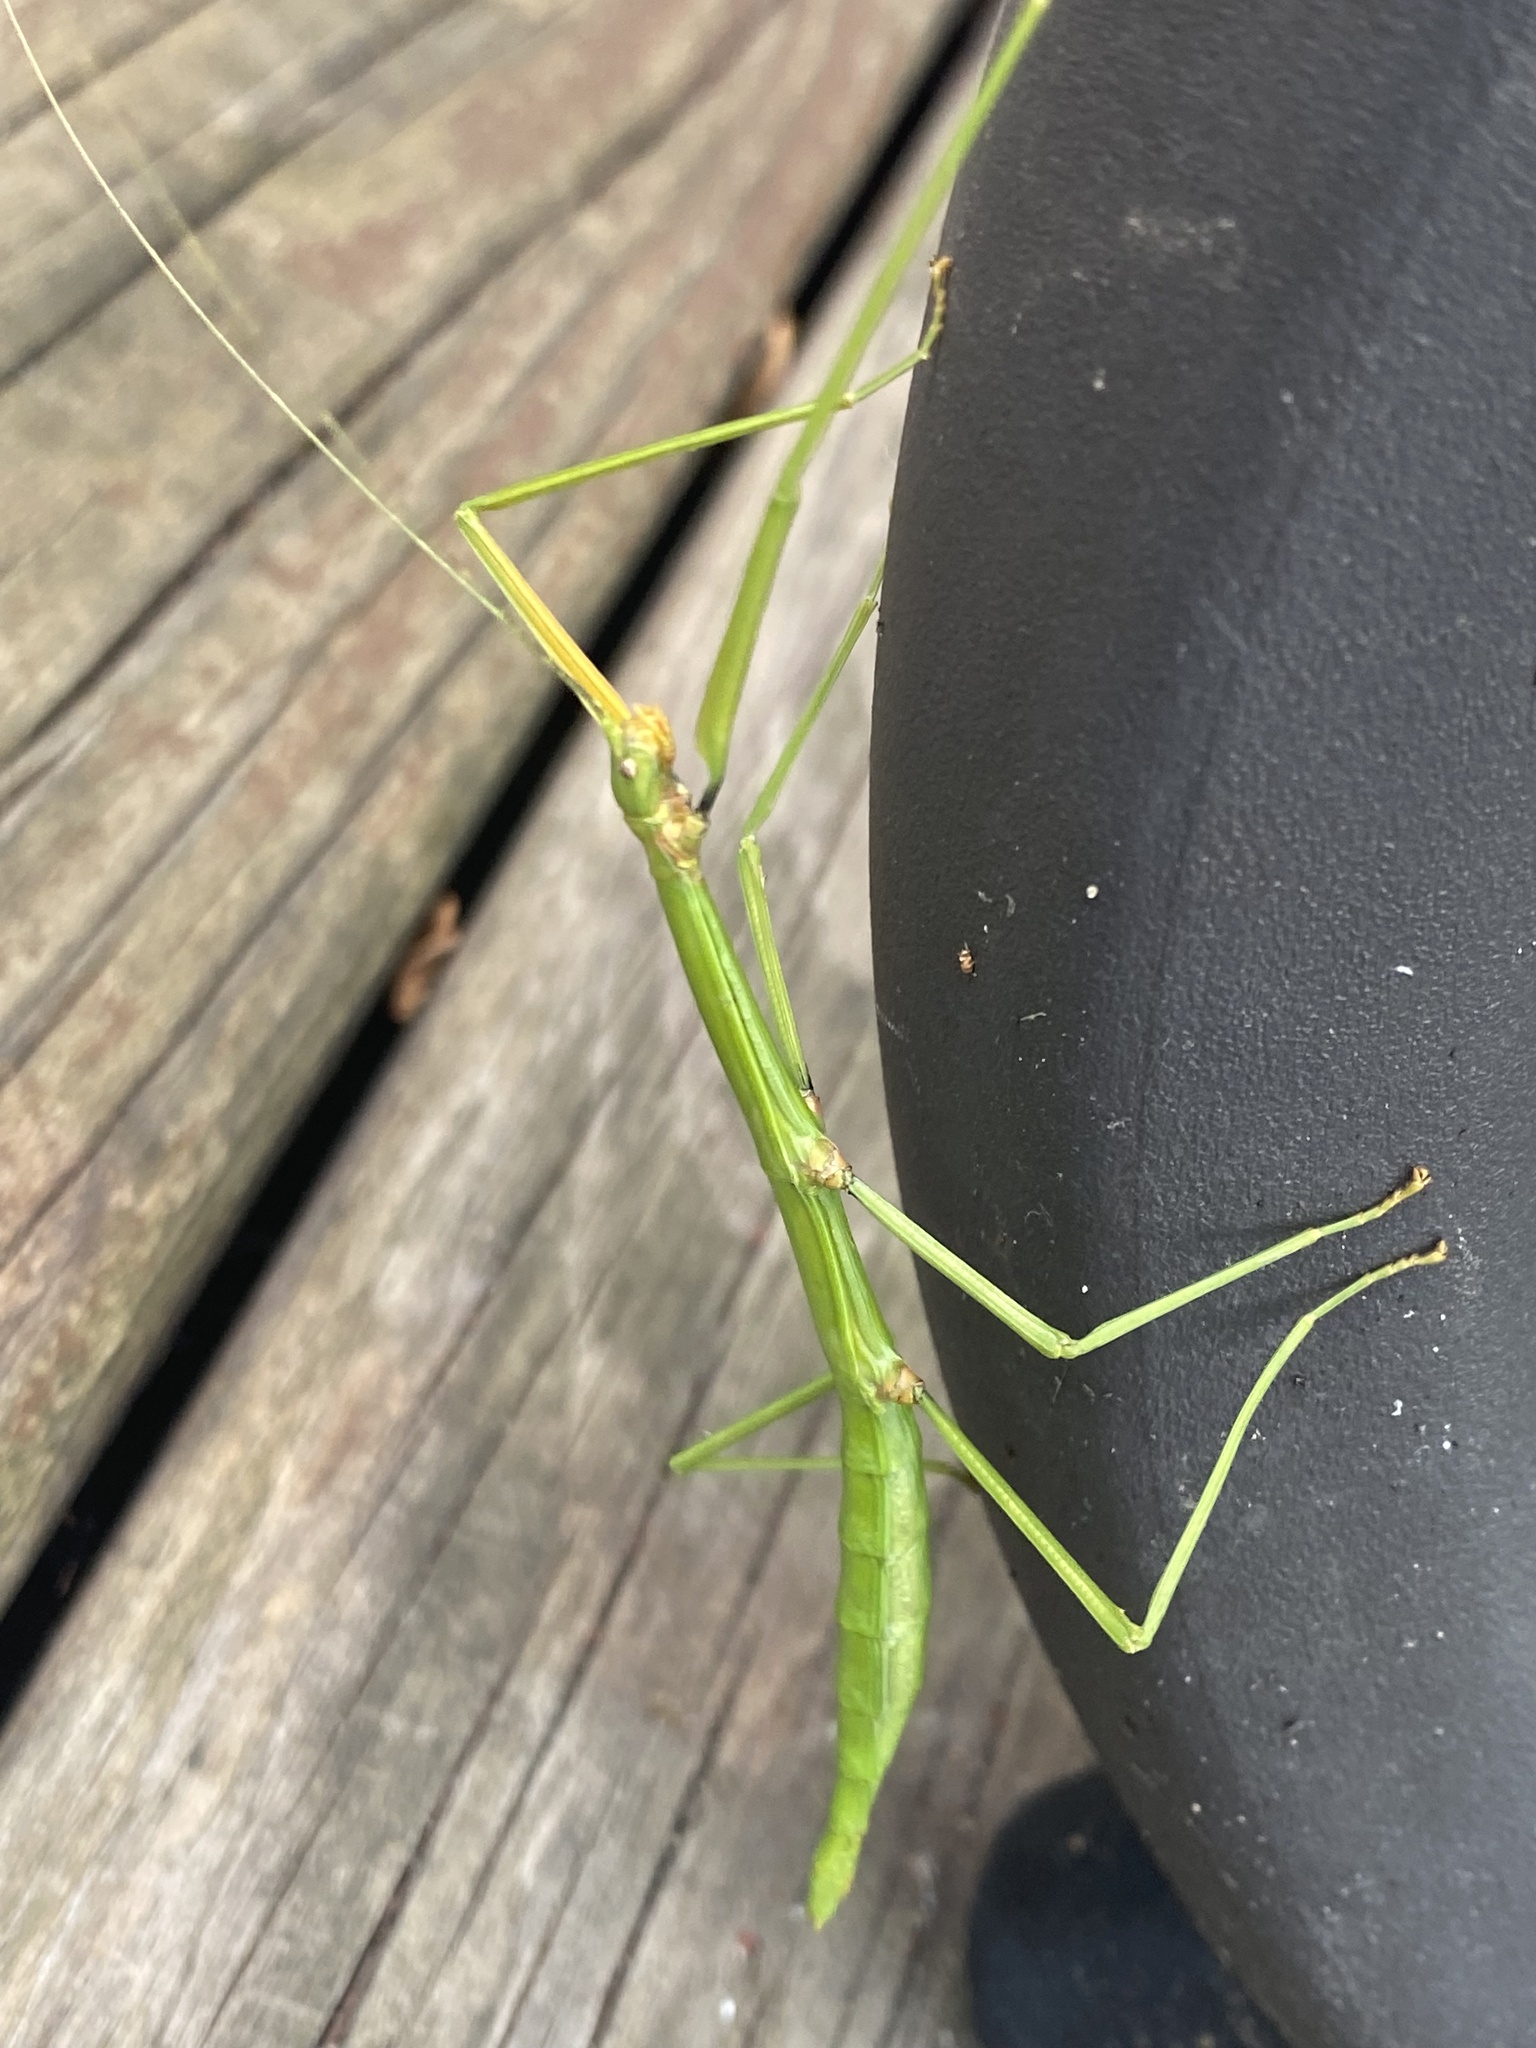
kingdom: Animalia
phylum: Arthropoda
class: Insecta
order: Phasmida
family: Diapheromeridae
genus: Diapheromera
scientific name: Diapheromera femorata
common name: Common american walkingstick
